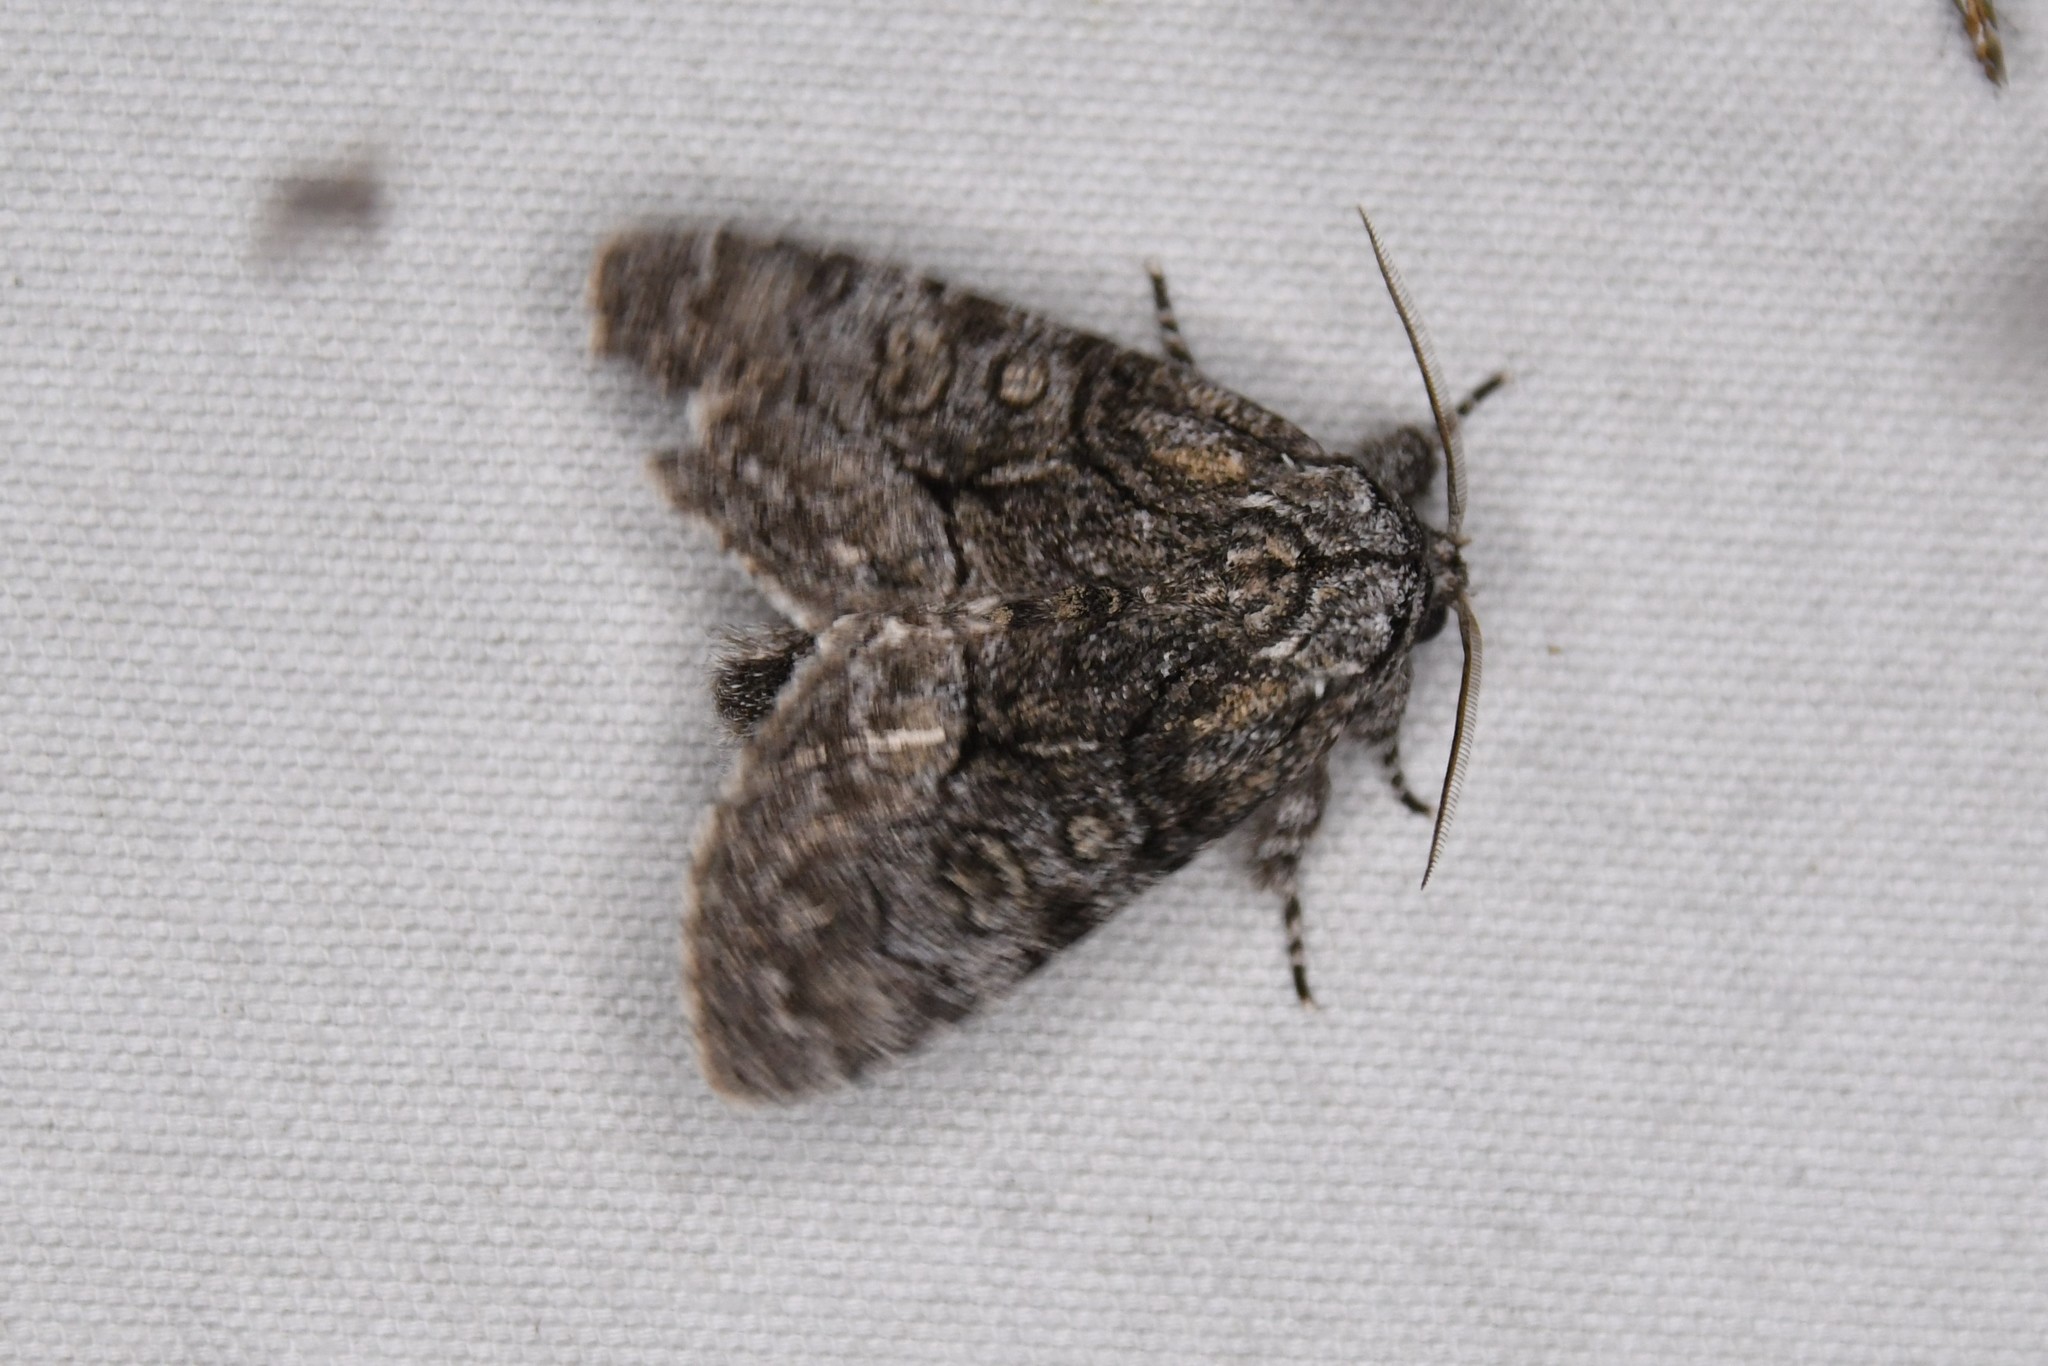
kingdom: Animalia
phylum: Arthropoda
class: Insecta
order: Lepidoptera
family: Noctuidae
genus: Raphia
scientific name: Raphia frater
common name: Brother
